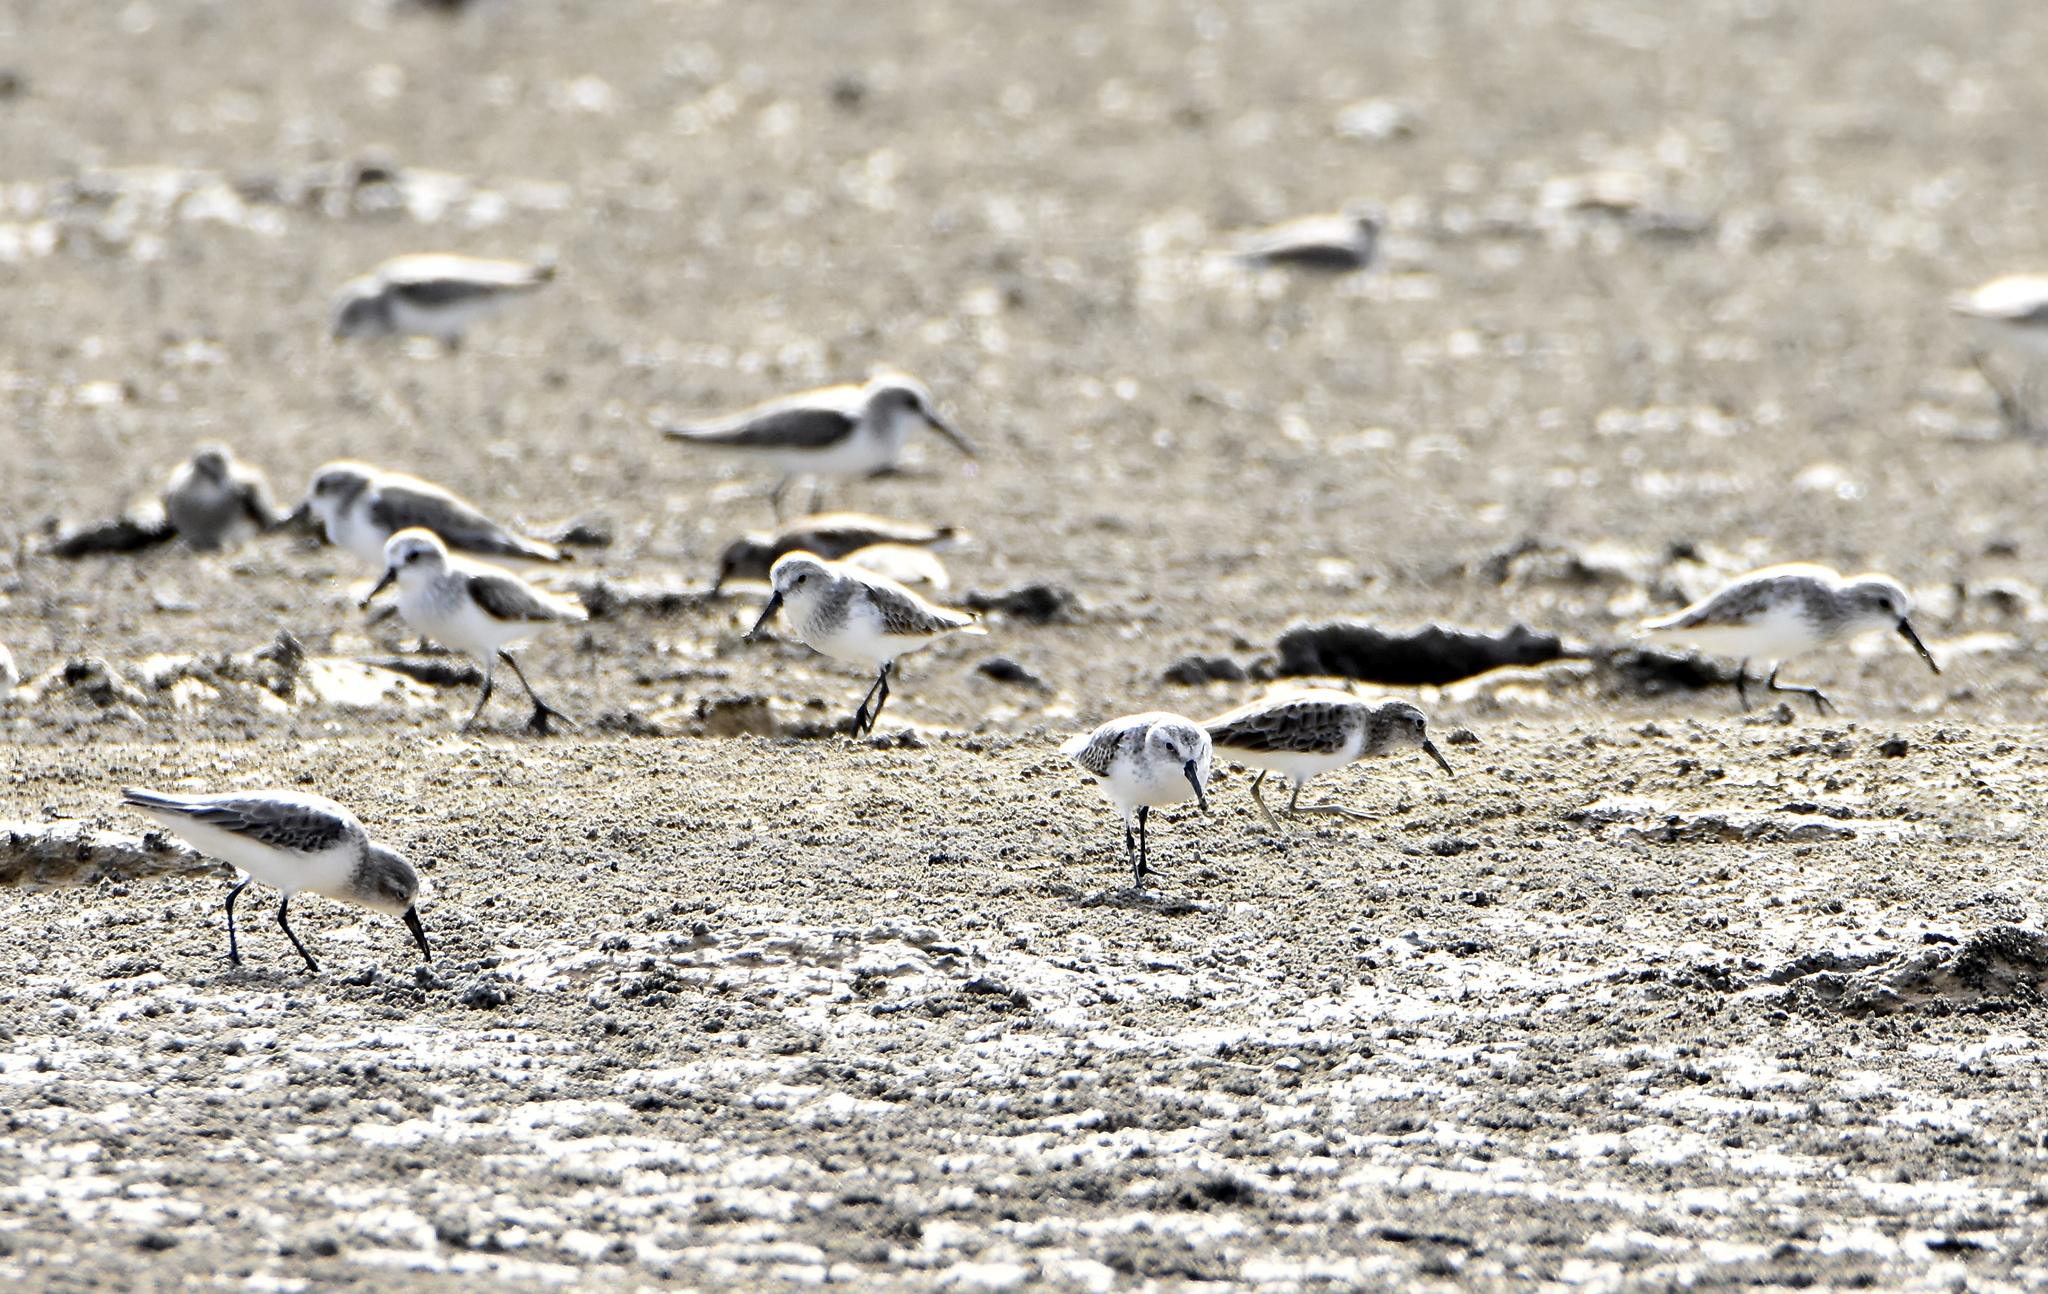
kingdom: Animalia
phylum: Chordata
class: Aves
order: Charadriiformes
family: Scolopacidae
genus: Calidris
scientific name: Calidris alba
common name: Sanderling
